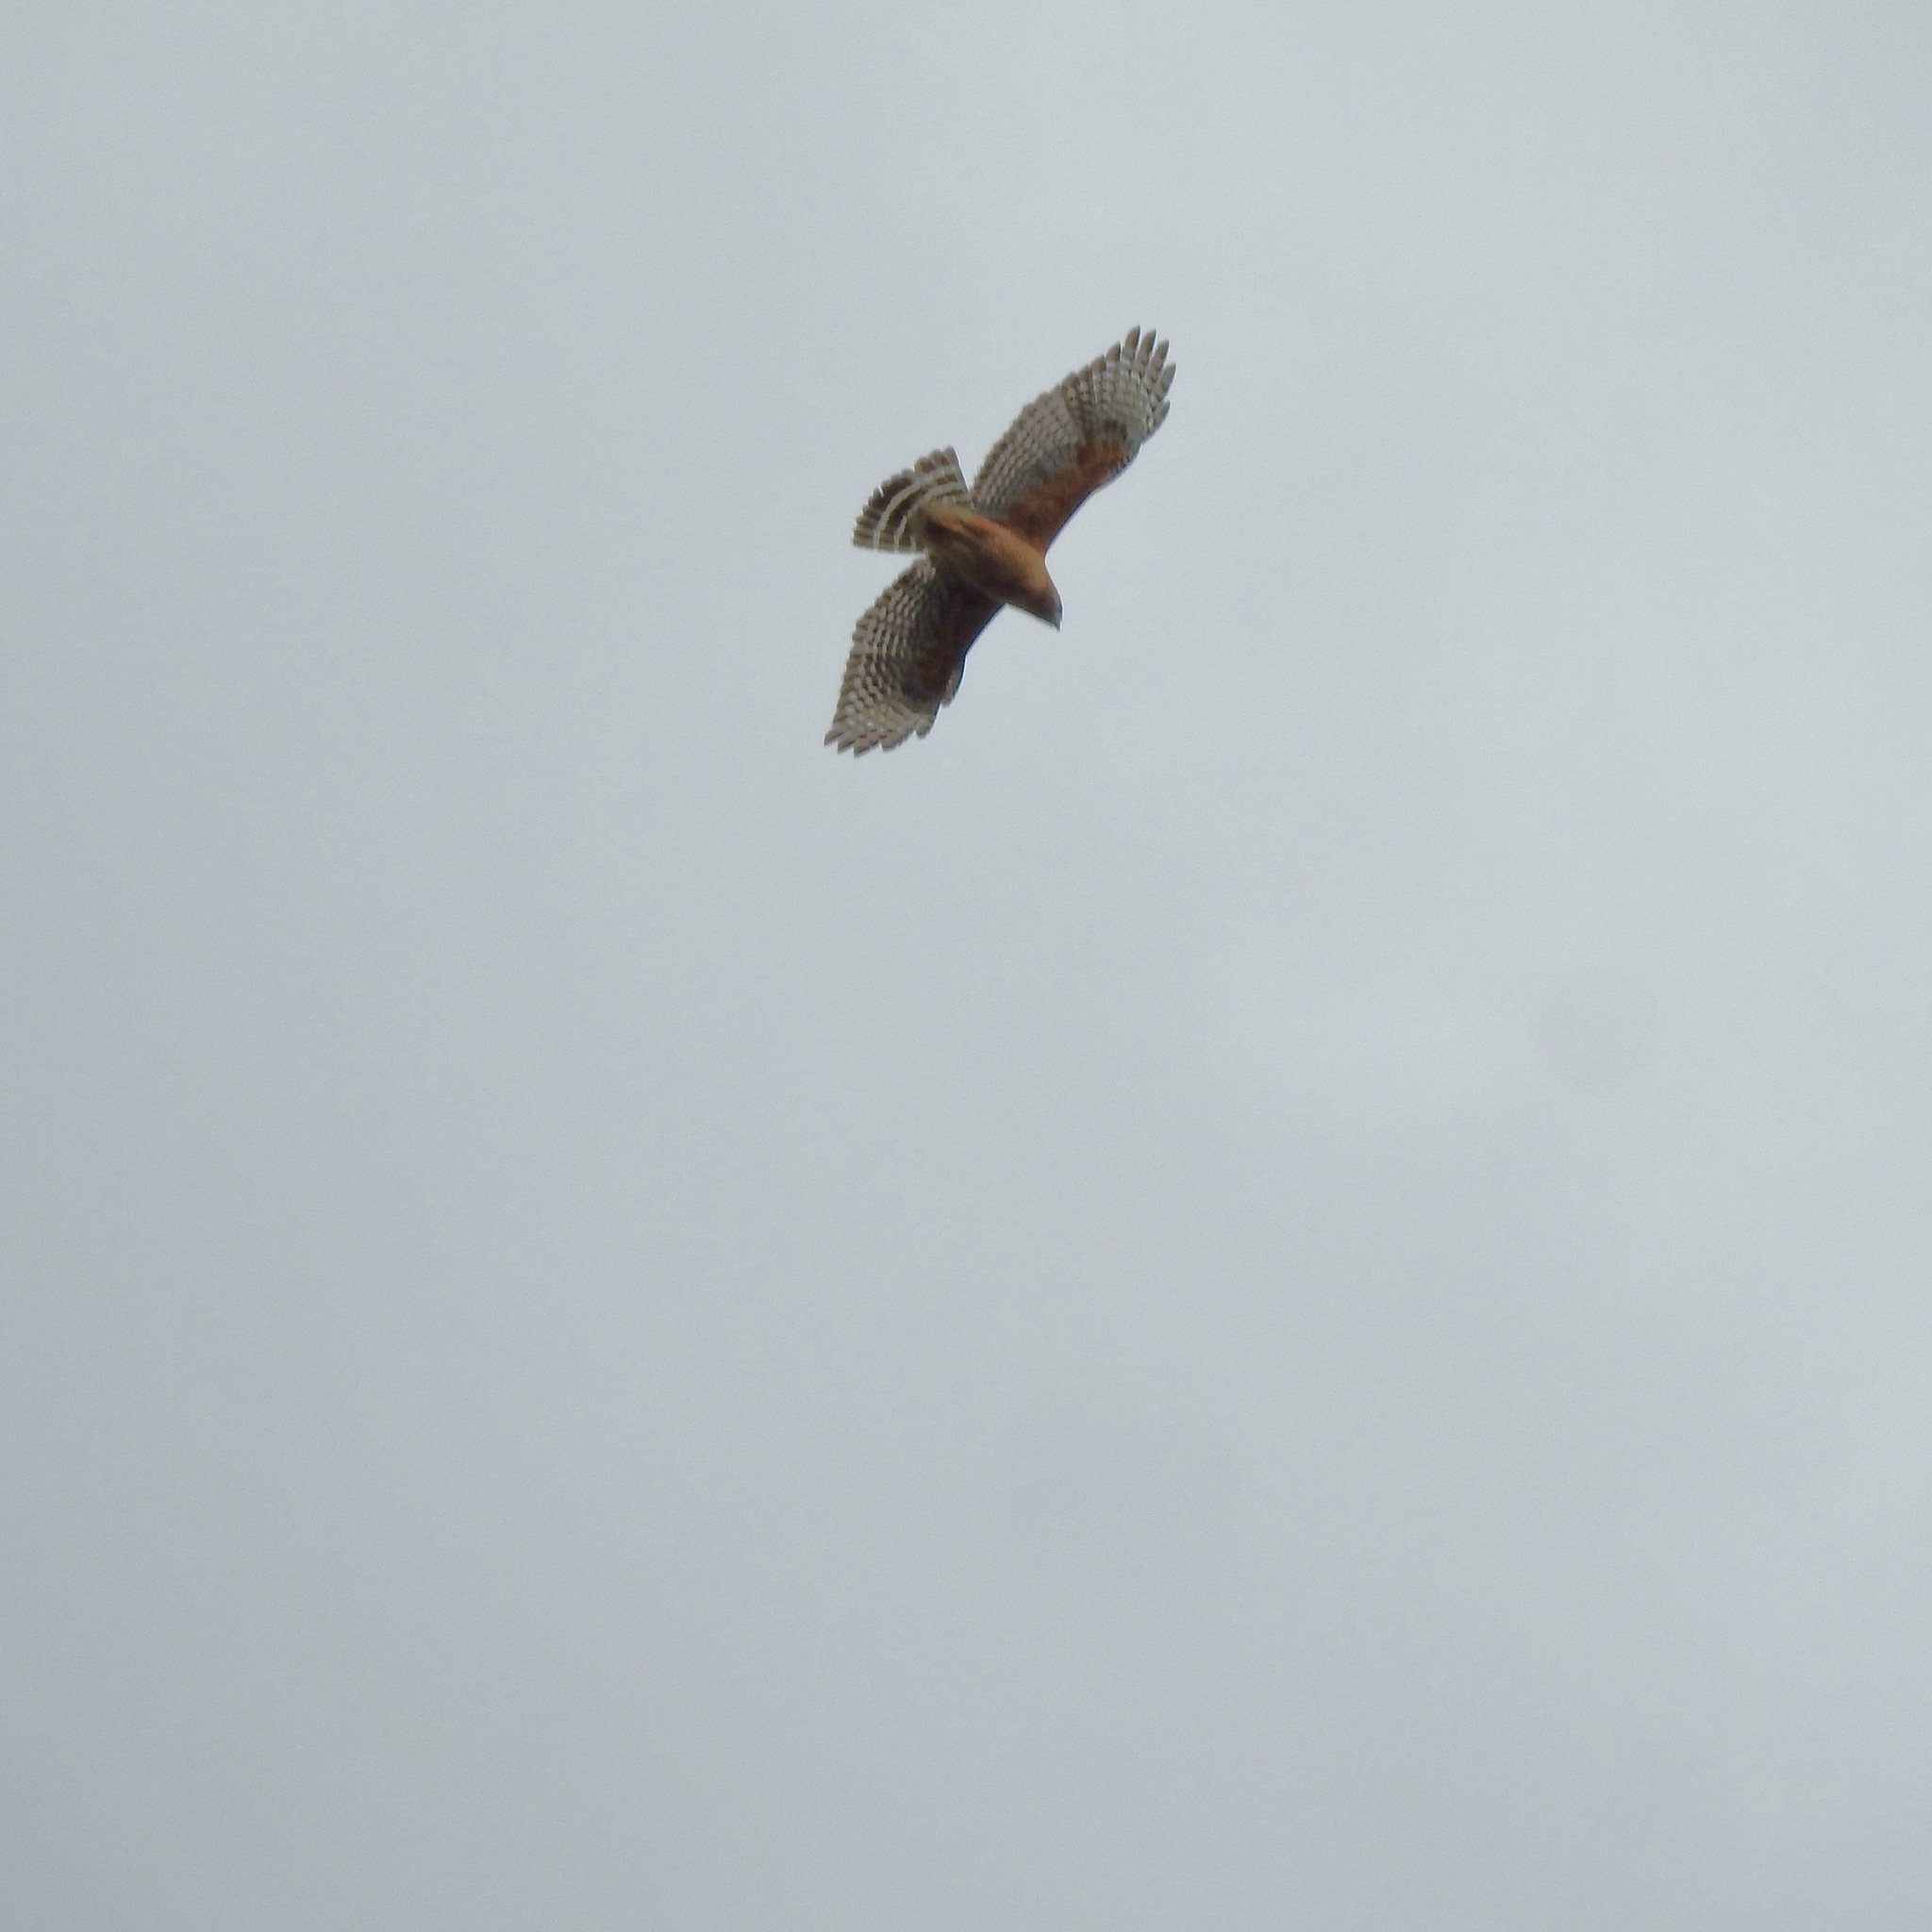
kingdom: Animalia
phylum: Chordata
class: Aves
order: Accipitriformes
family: Accipitridae
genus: Buteo
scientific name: Buteo lineatus
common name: Red-shouldered hawk
